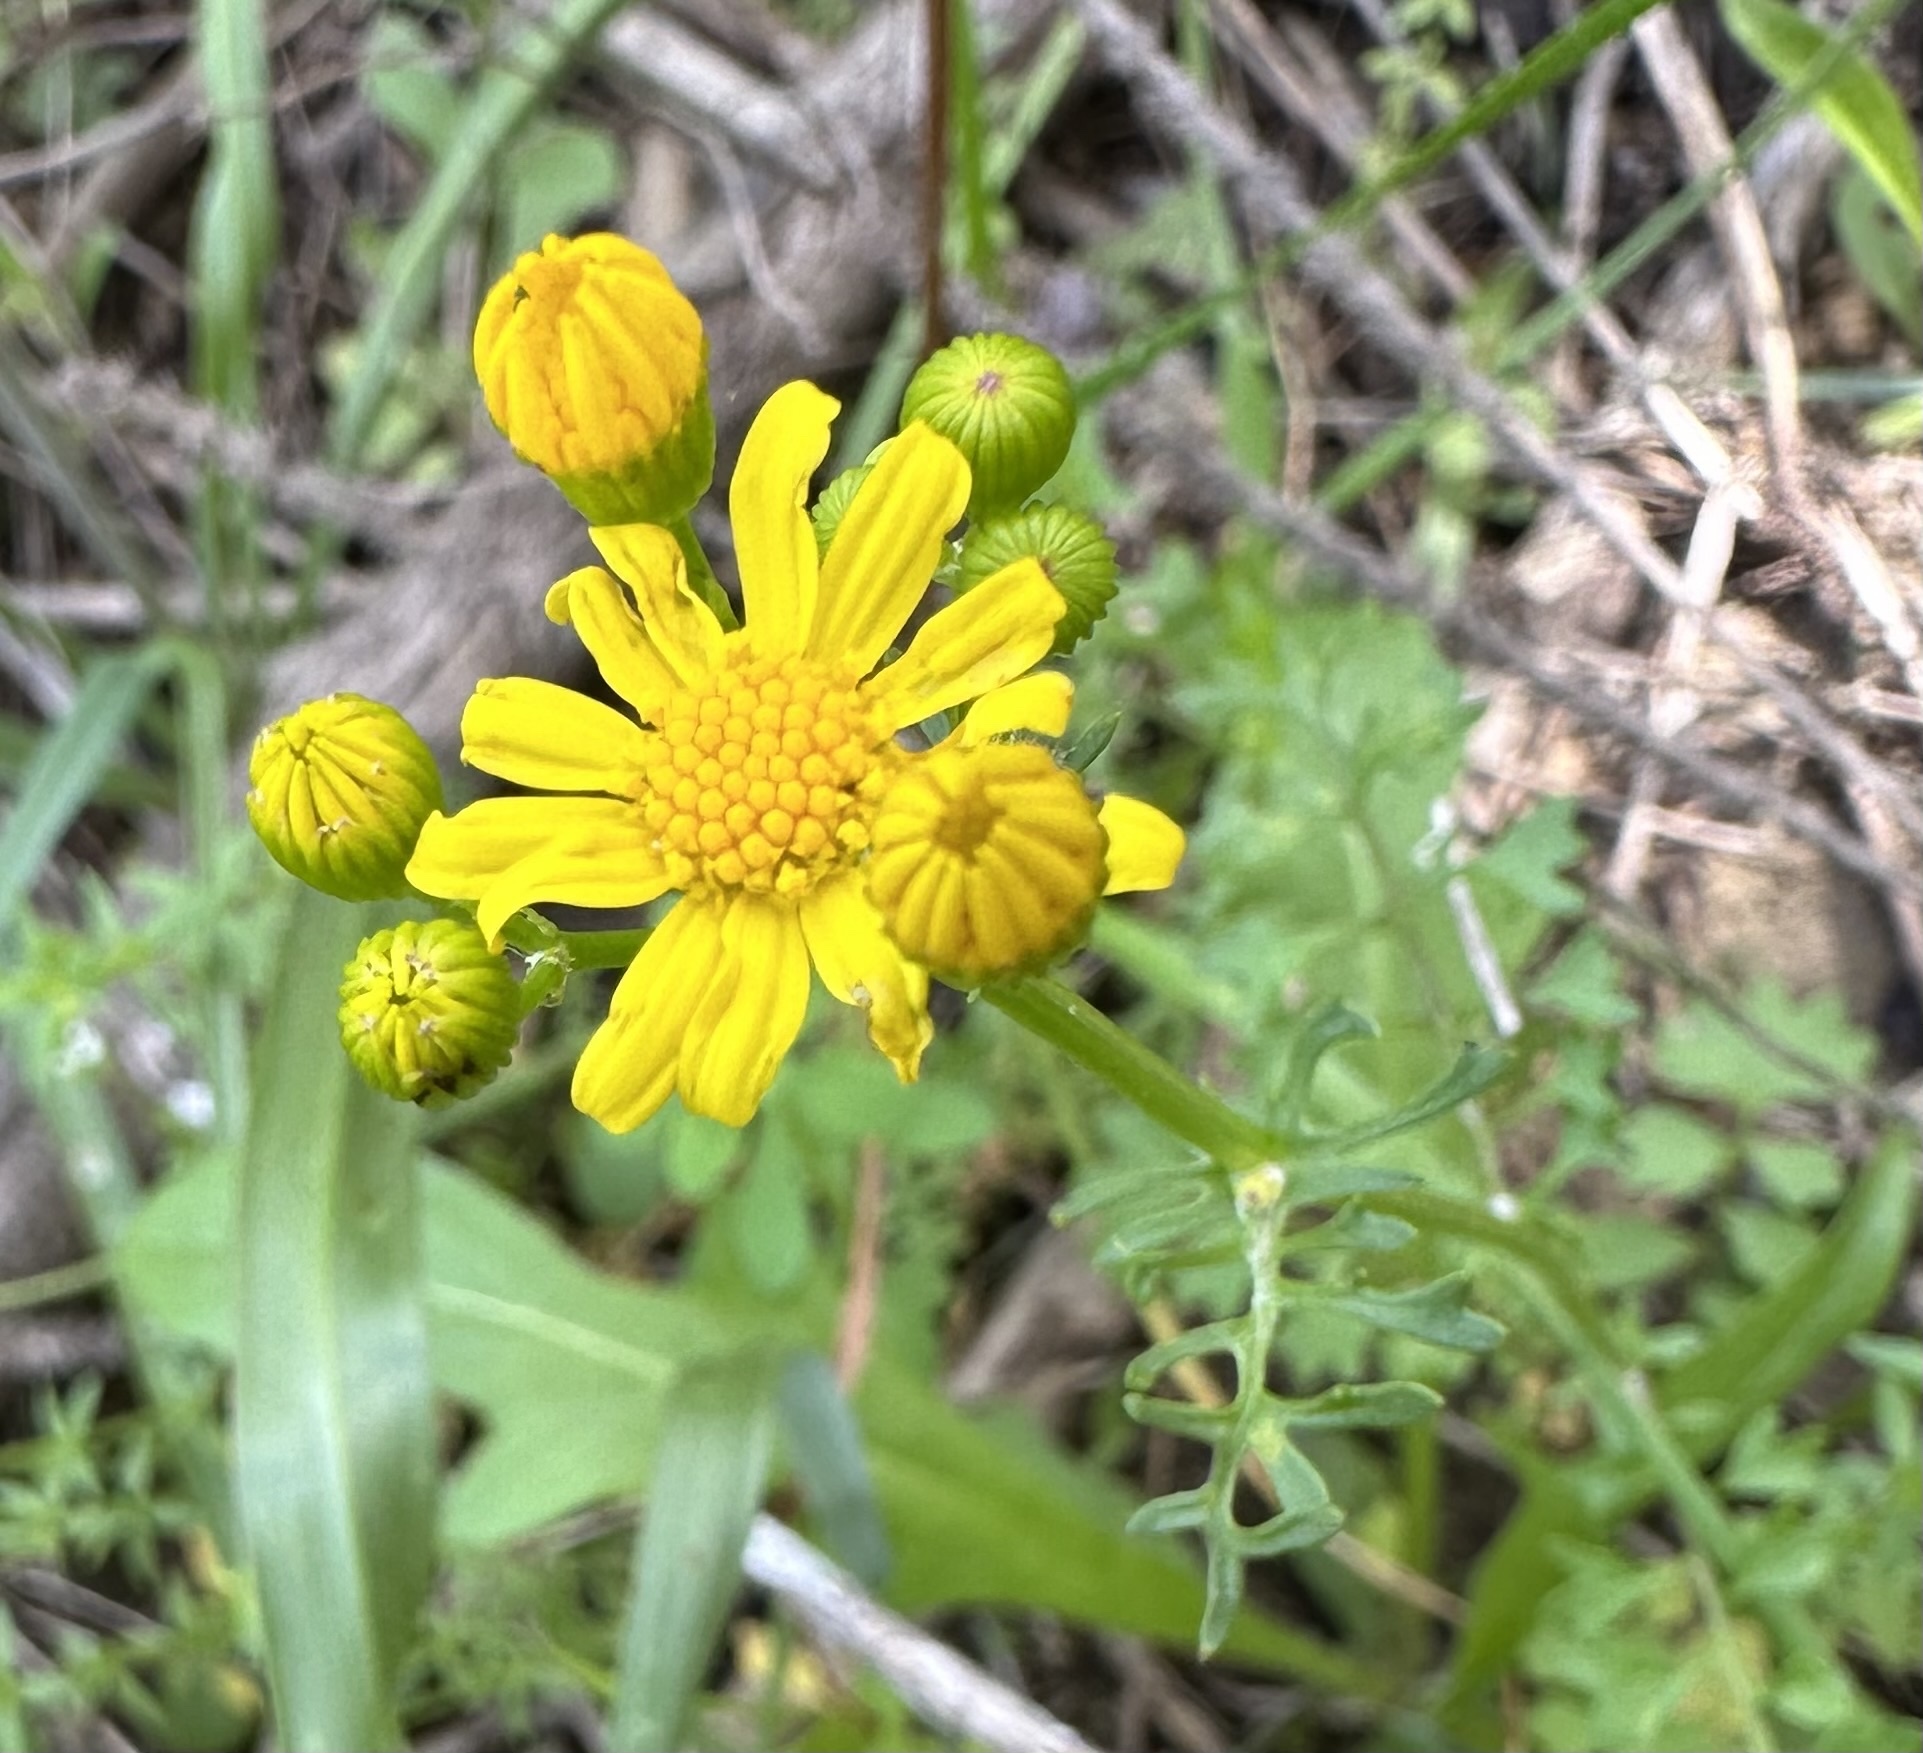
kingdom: Plantae
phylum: Tracheophyta
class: Magnoliopsida
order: Asterales
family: Asteraceae
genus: Packera
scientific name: Packera tampicana
